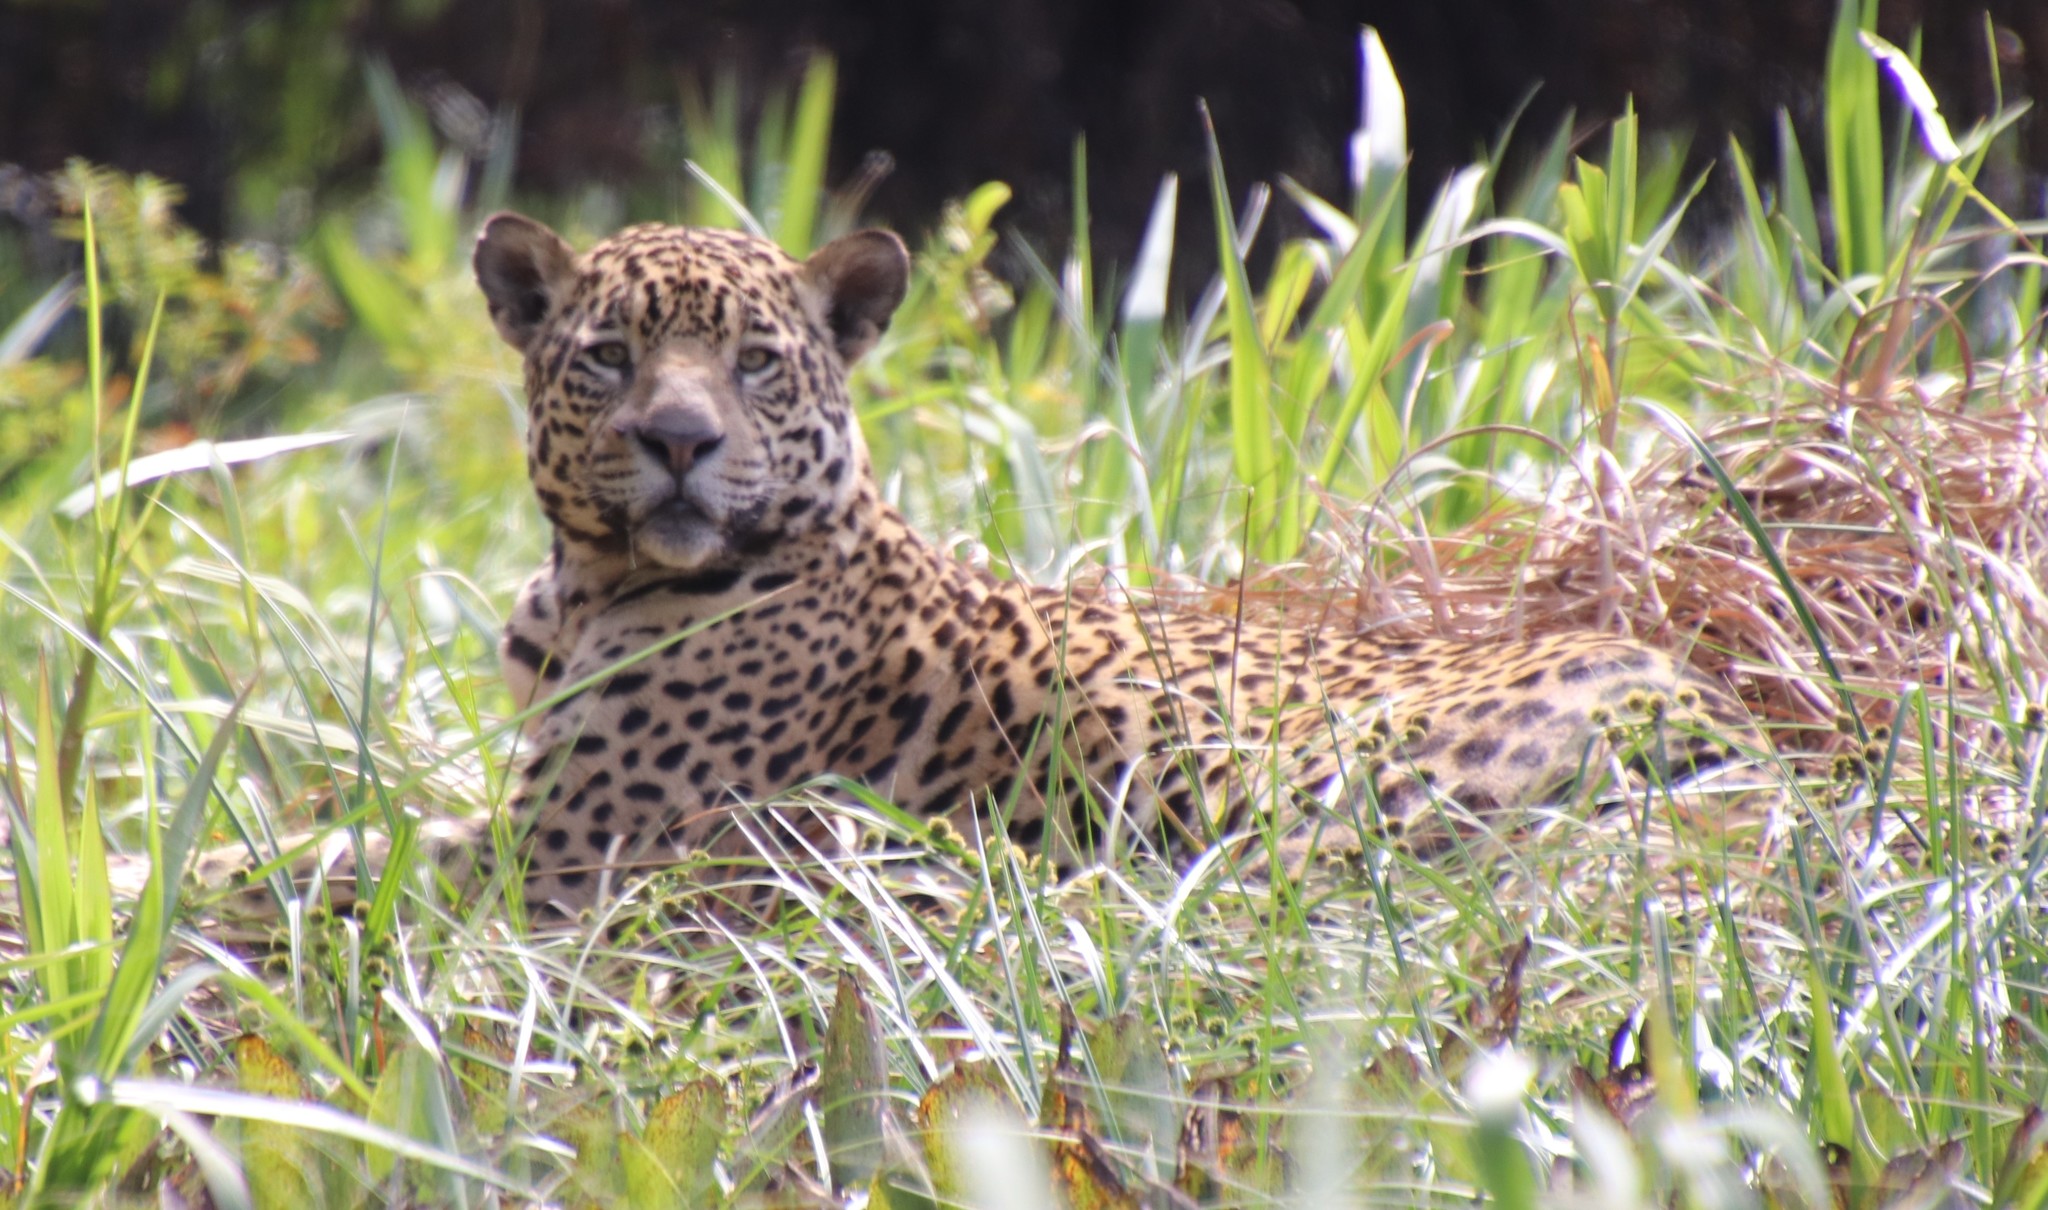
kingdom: Animalia
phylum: Chordata
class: Mammalia
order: Carnivora
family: Felidae
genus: Panthera
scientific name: Panthera onca
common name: Jaguar
